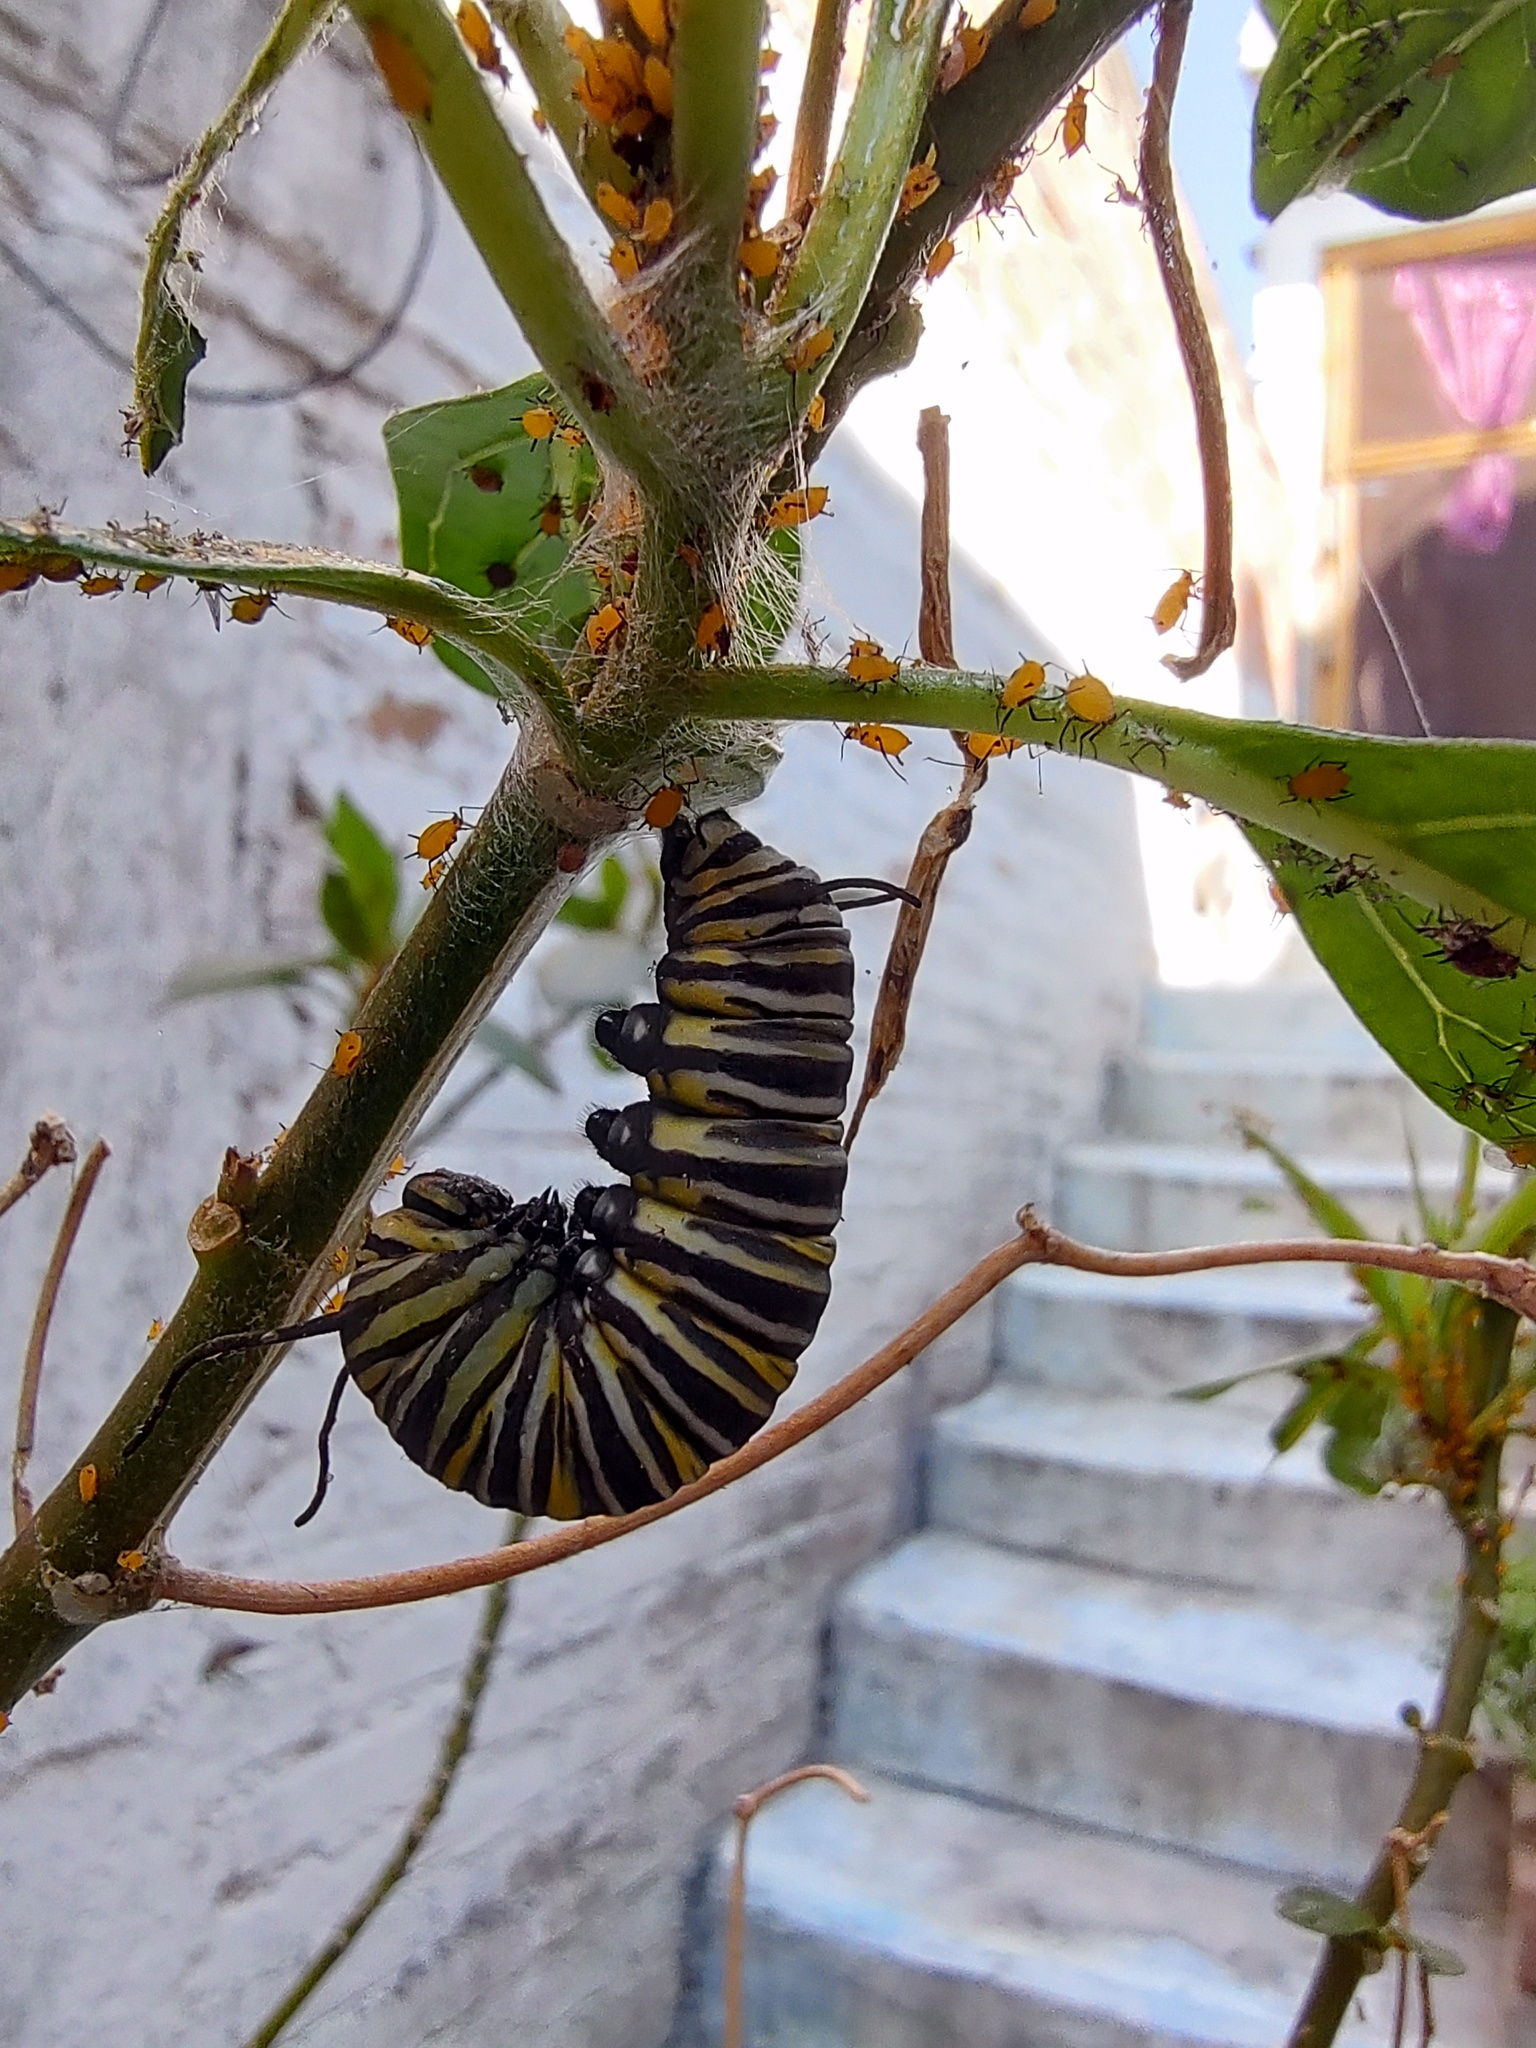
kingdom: Animalia
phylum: Arthropoda
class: Insecta
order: Lepidoptera
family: Nymphalidae
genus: Danaus
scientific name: Danaus plexippus
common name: Monarch
